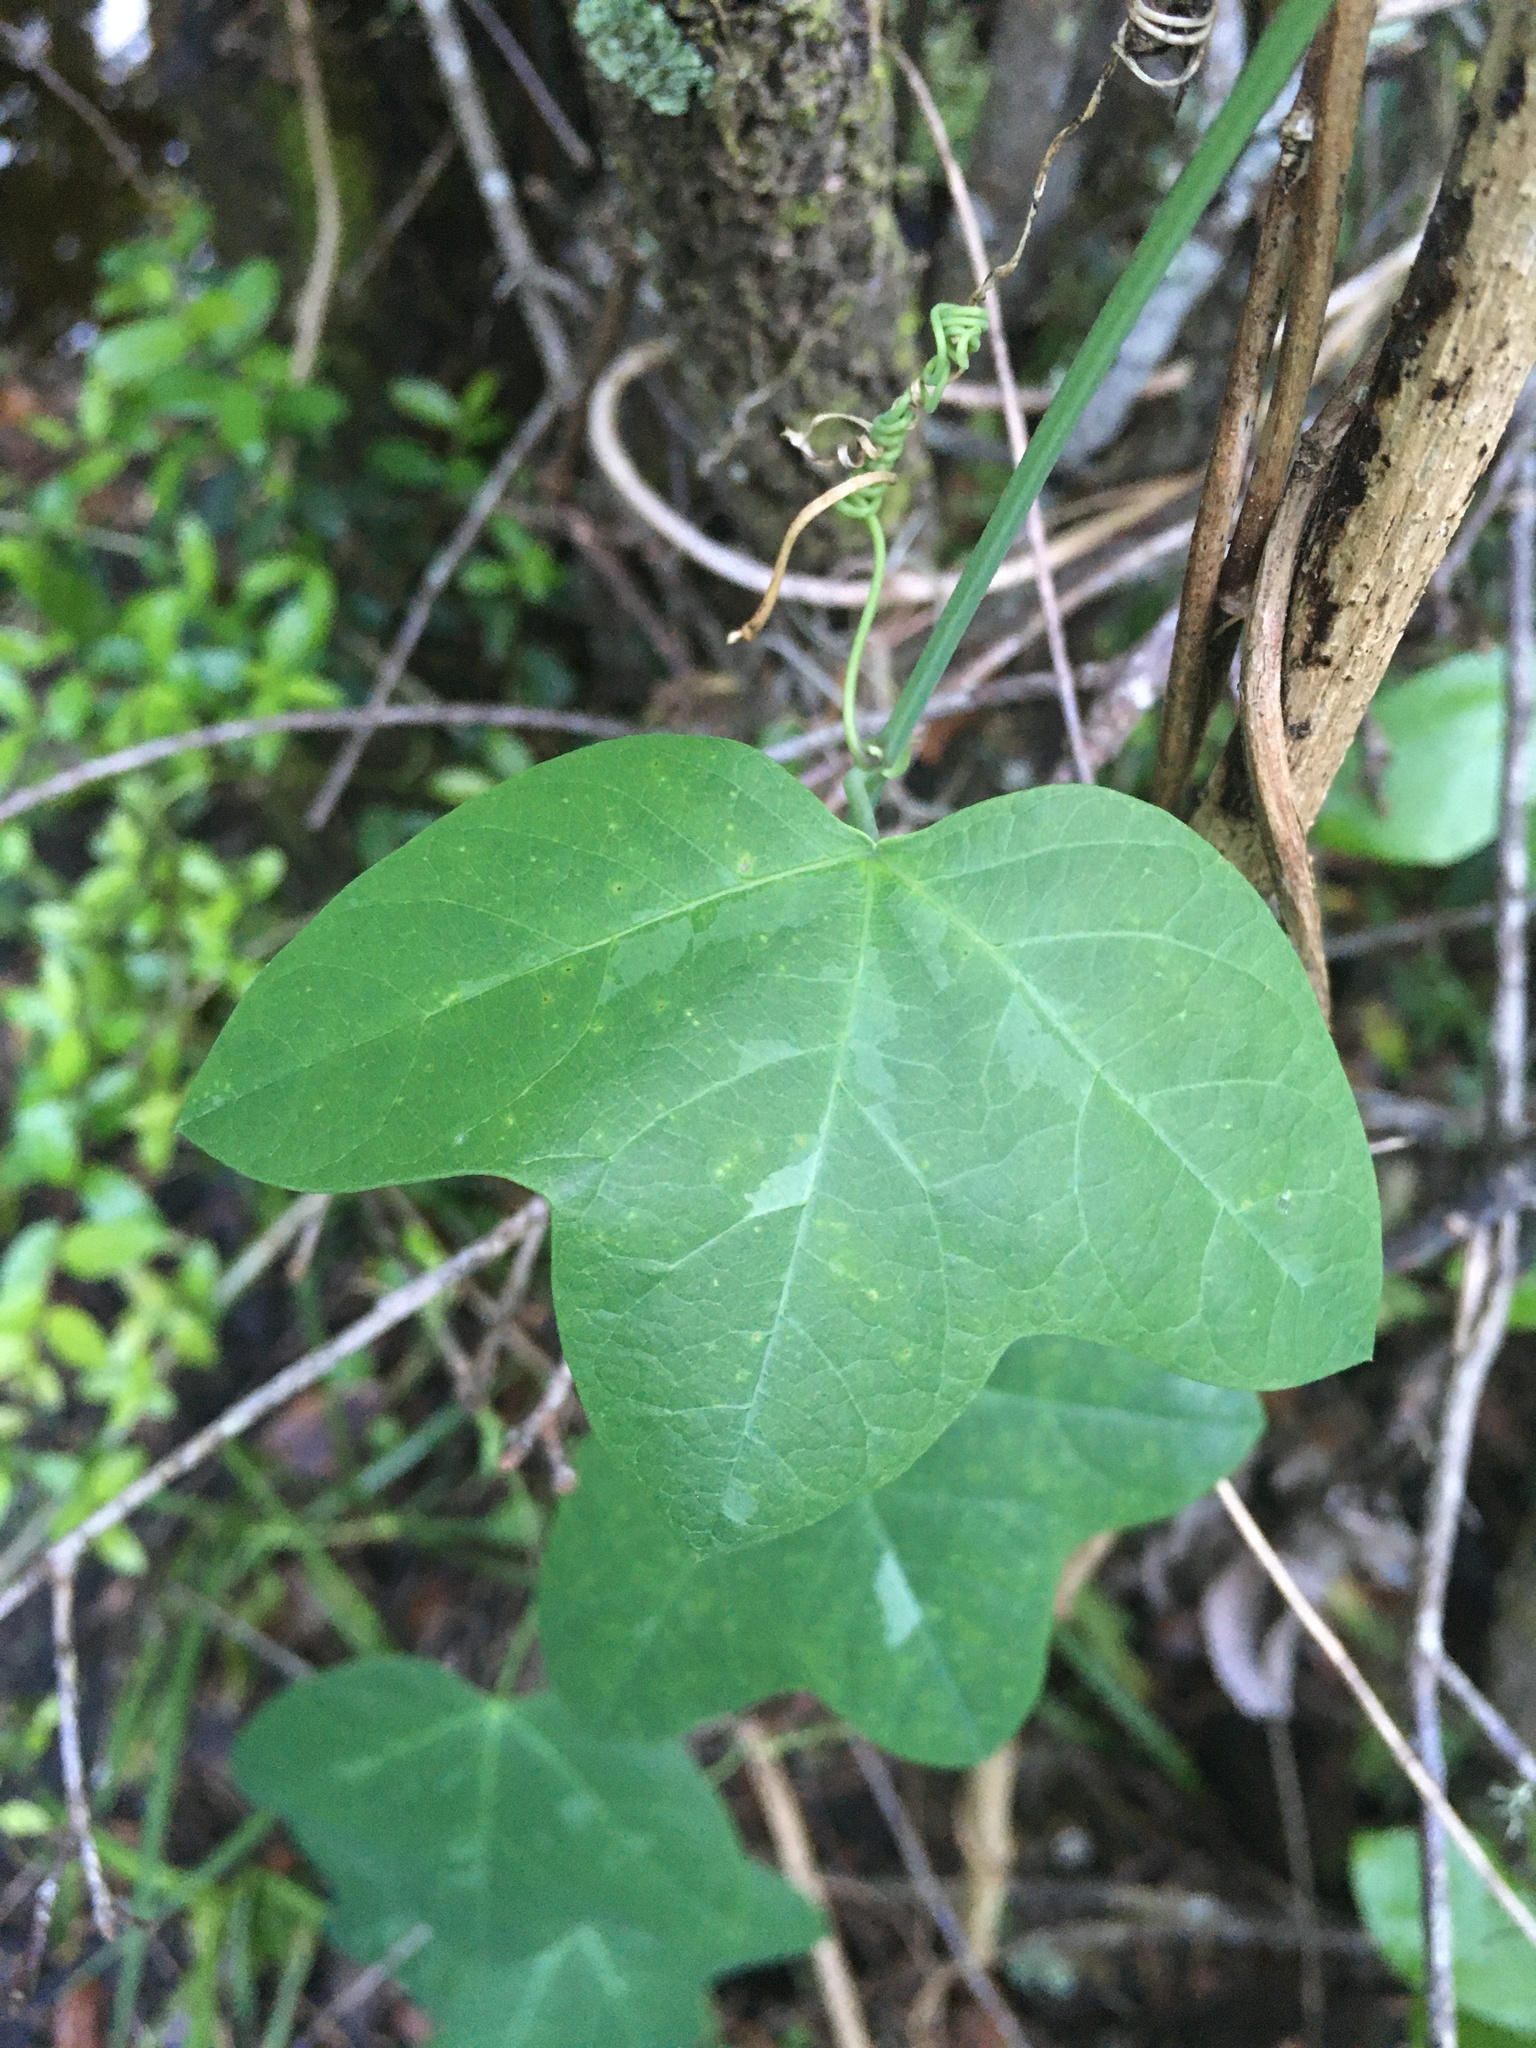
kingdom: Plantae
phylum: Tracheophyta
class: Magnoliopsida
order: Malpighiales
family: Passifloraceae
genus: Passiflora
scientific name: Passiflora lutea
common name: Yellow passionflower
